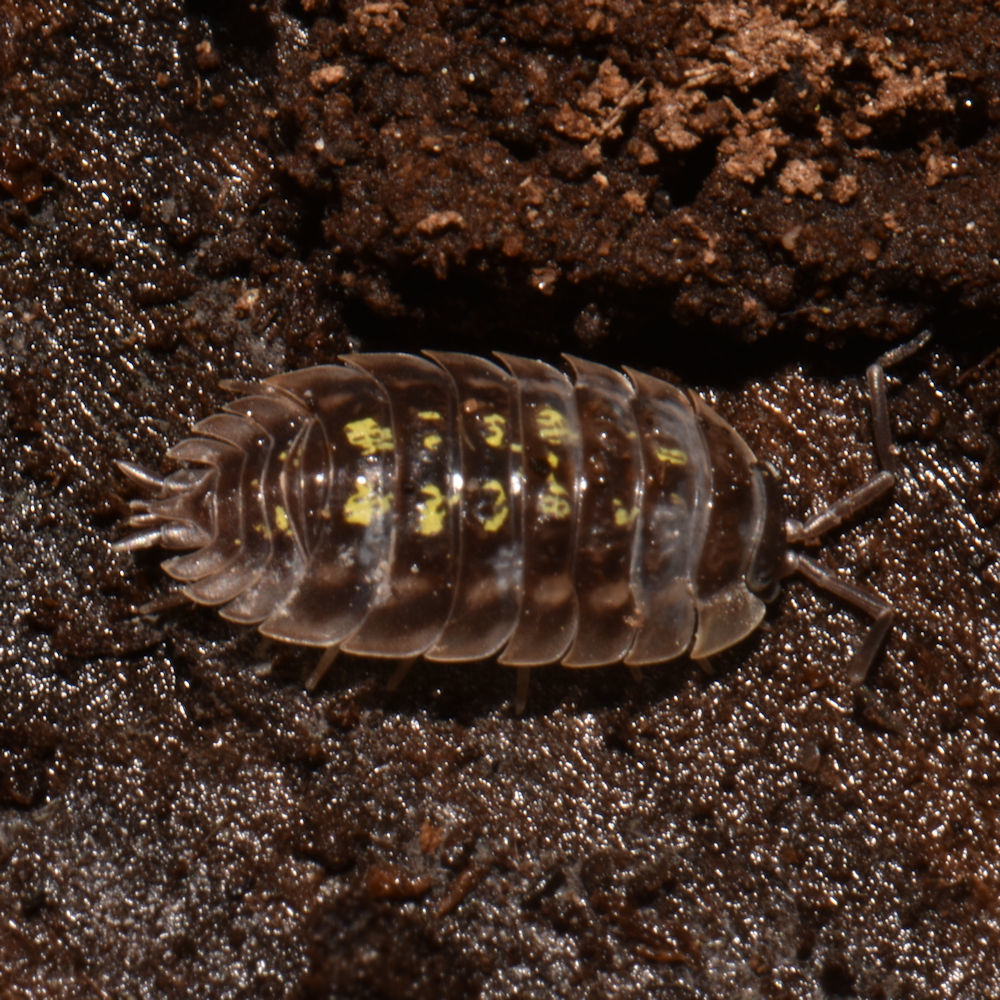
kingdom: Animalia
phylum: Arthropoda
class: Malacostraca
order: Isopoda
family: Oniscidae
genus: Oniscus
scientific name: Oniscus asellus
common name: Common shiny woodlouse
